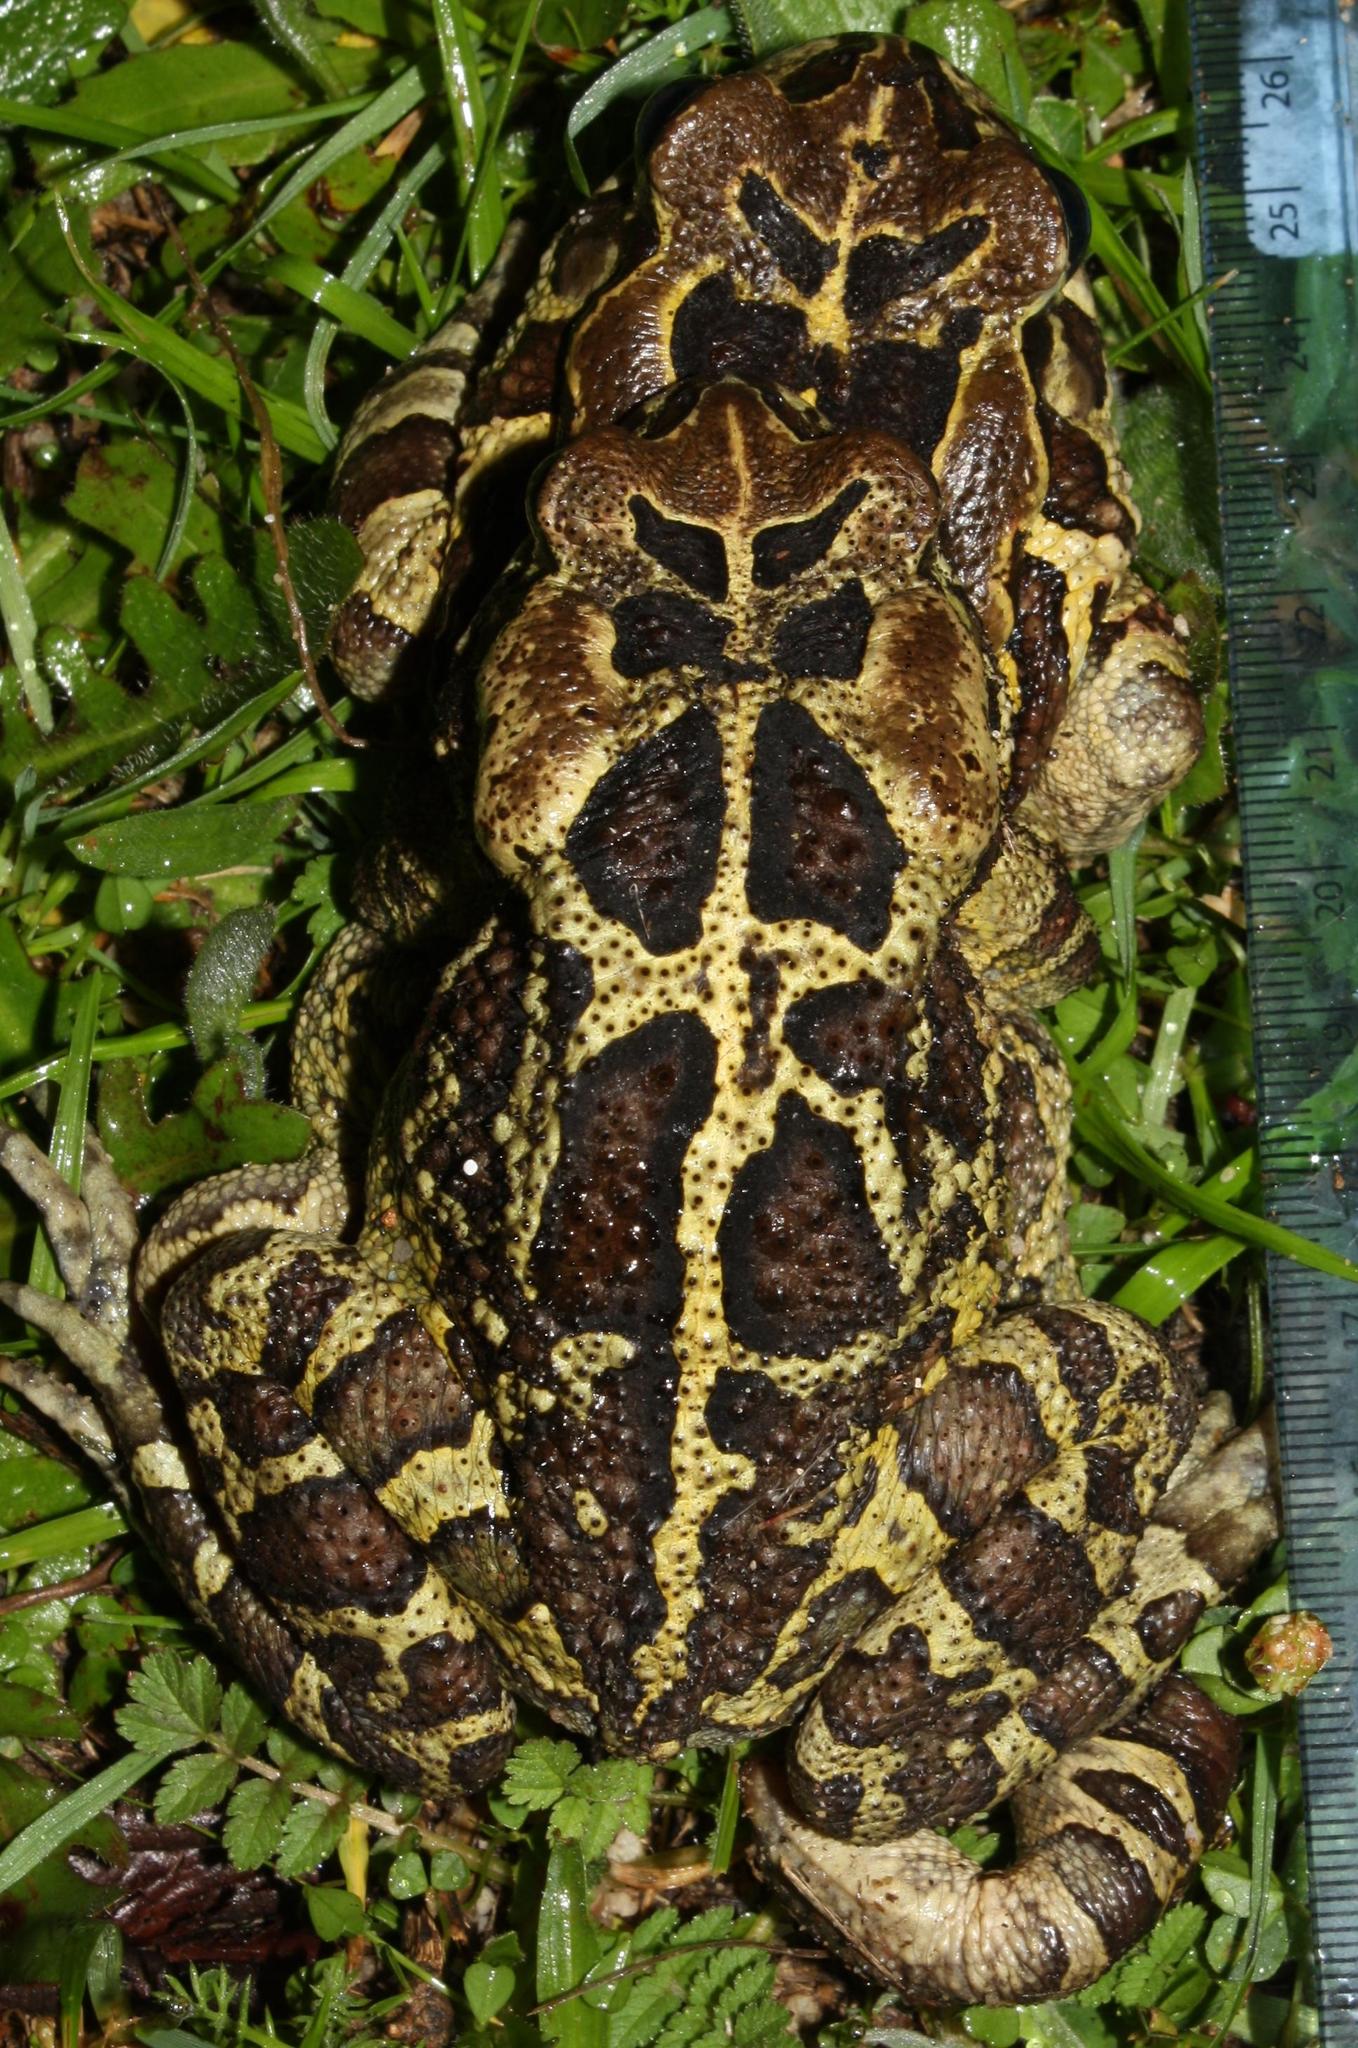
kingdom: Animalia
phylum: Chordata
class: Amphibia
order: Anura
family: Bufonidae
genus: Sclerophrys
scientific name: Sclerophrys pantherina
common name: Panther toad
